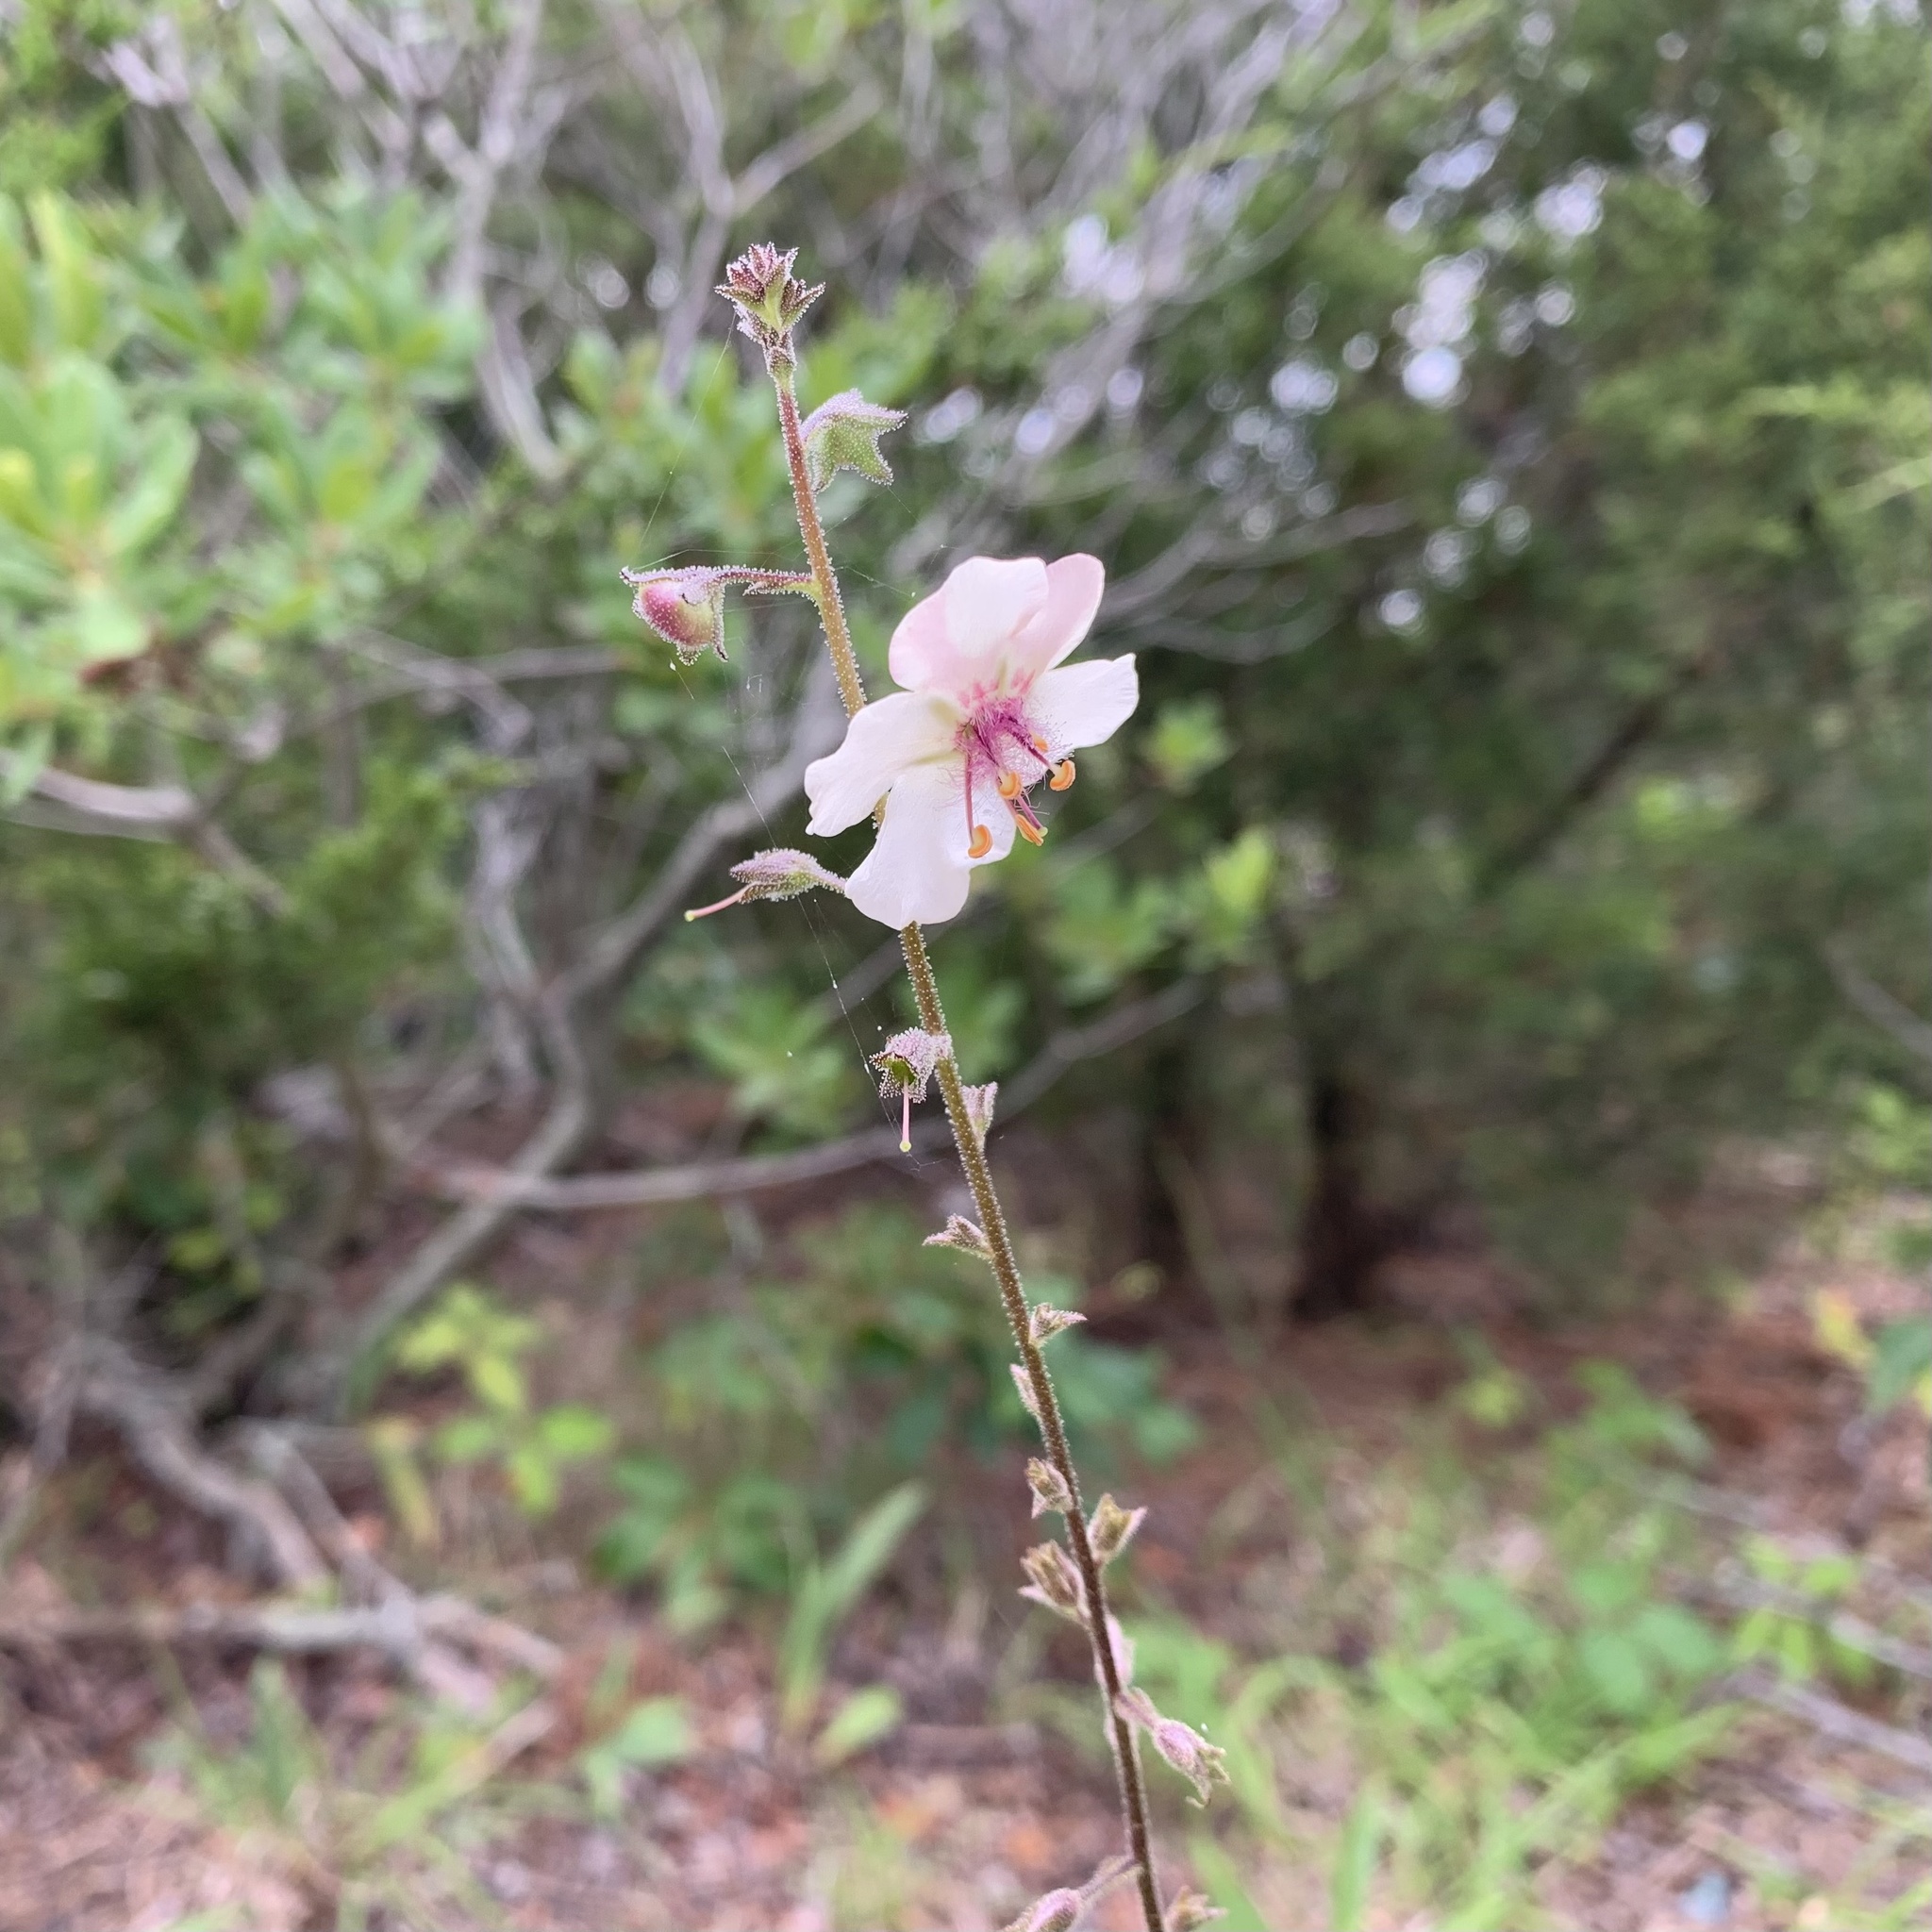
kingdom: Plantae
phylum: Tracheophyta
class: Magnoliopsida
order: Lamiales
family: Scrophulariaceae
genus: Verbascum
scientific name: Verbascum blattaria
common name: Moth mullein
